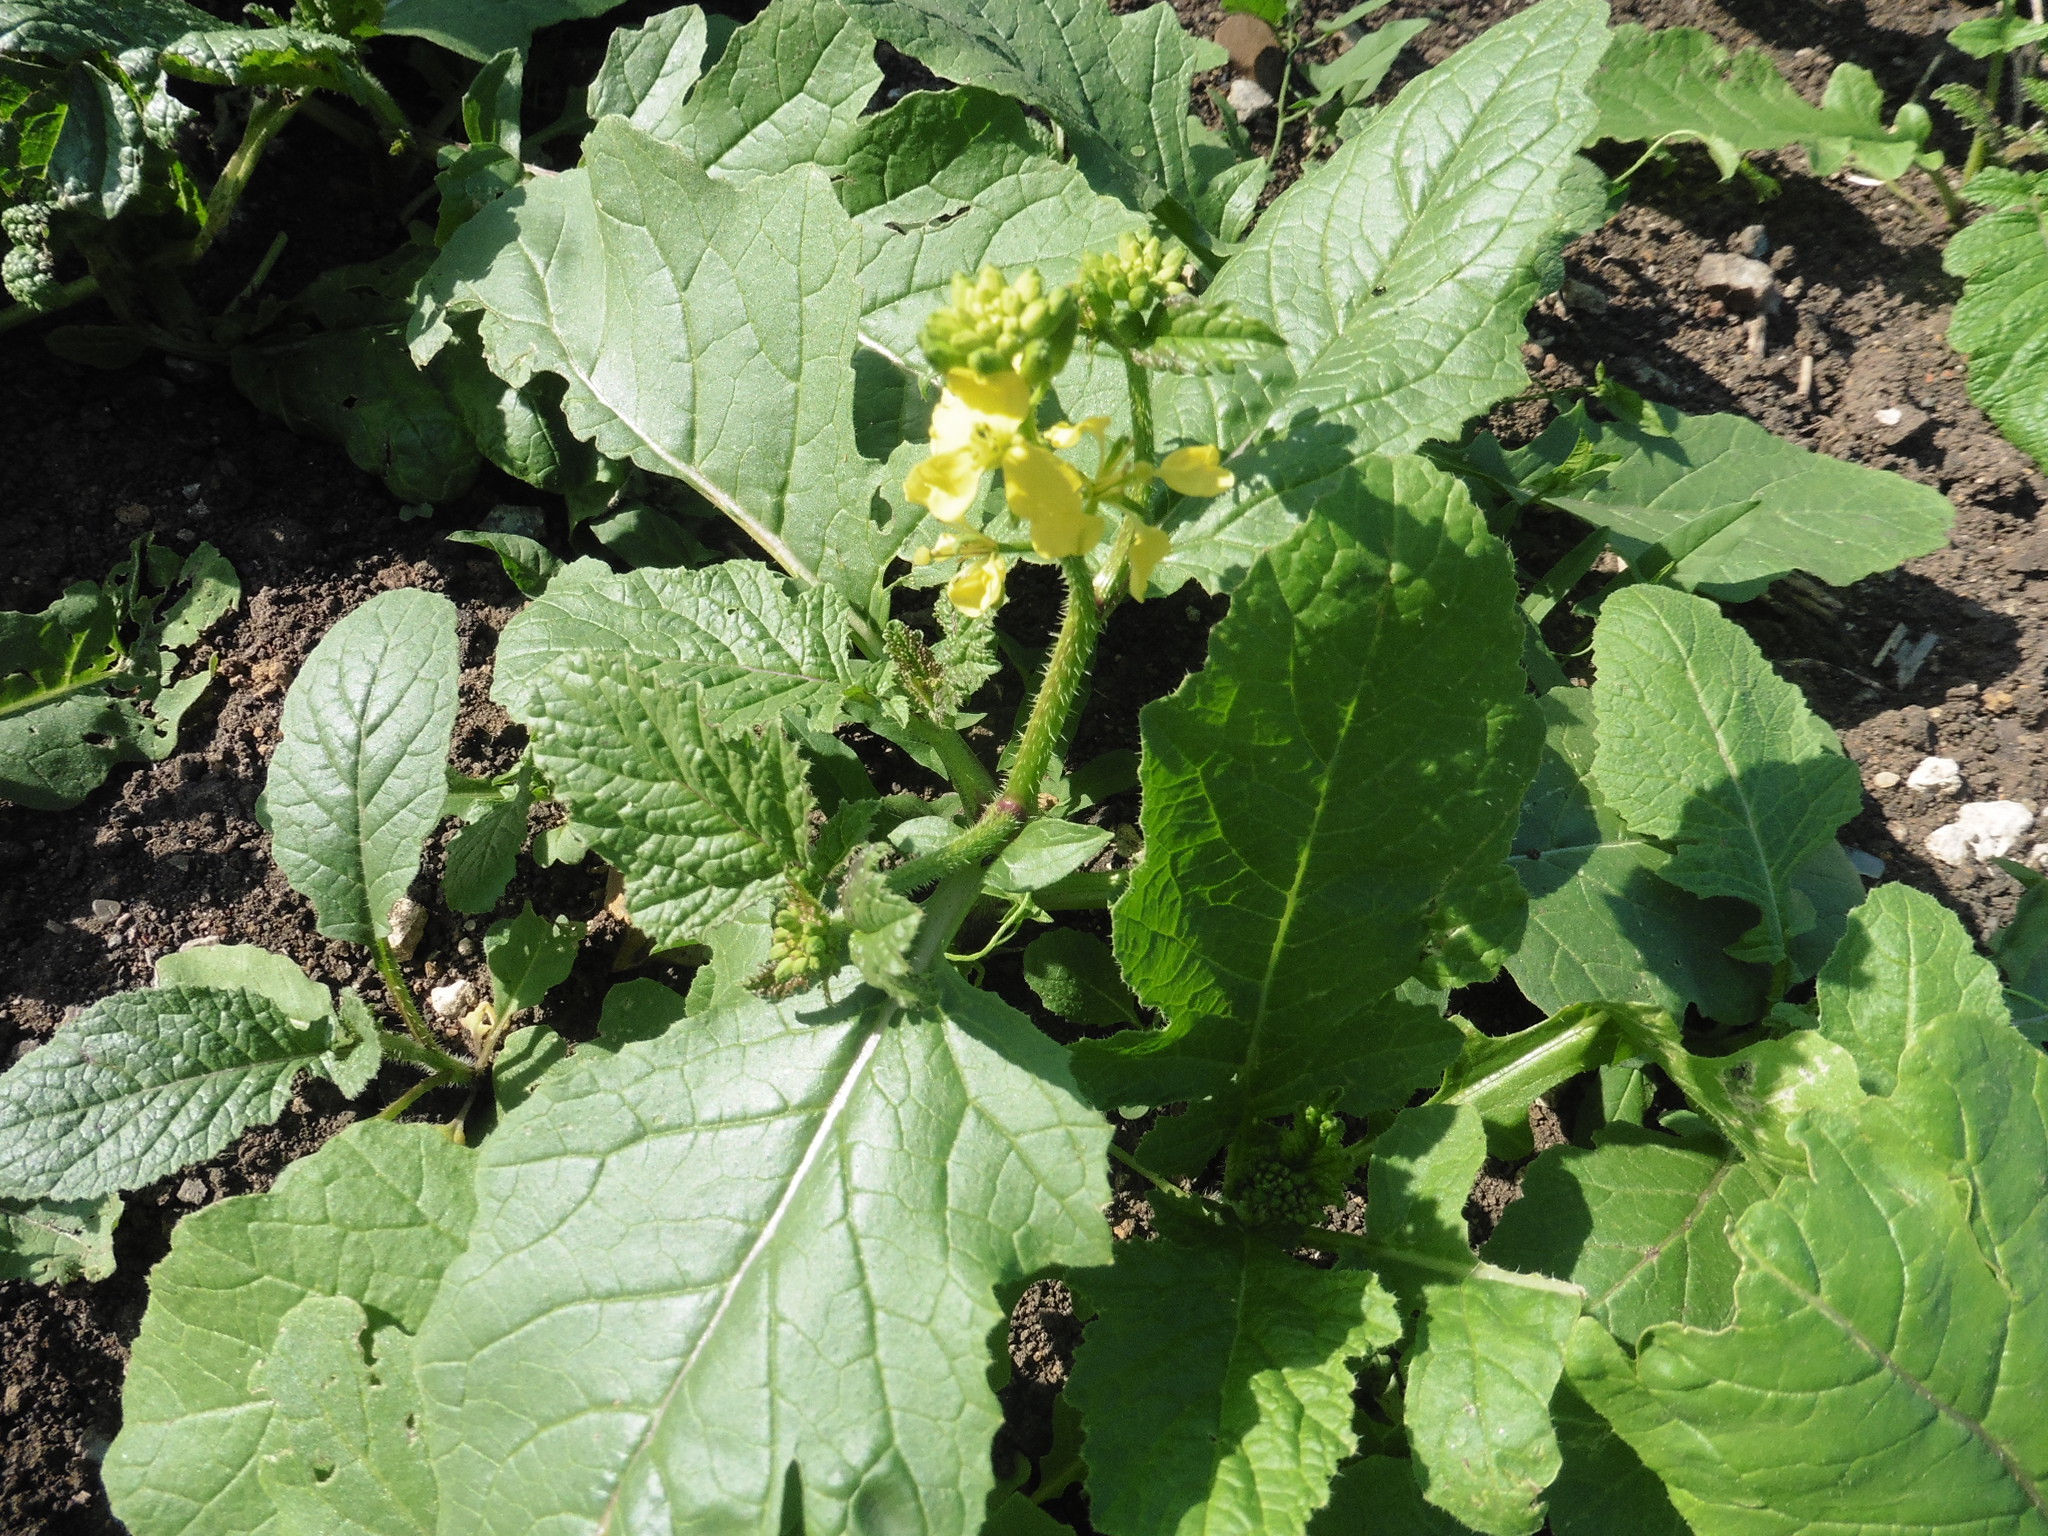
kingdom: Plantae
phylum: Tracheophyta
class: Magnoliopsida
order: Brassicales
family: Brassicaceae
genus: Sinapis
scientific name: Sinapis arvensis
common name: Charlock
